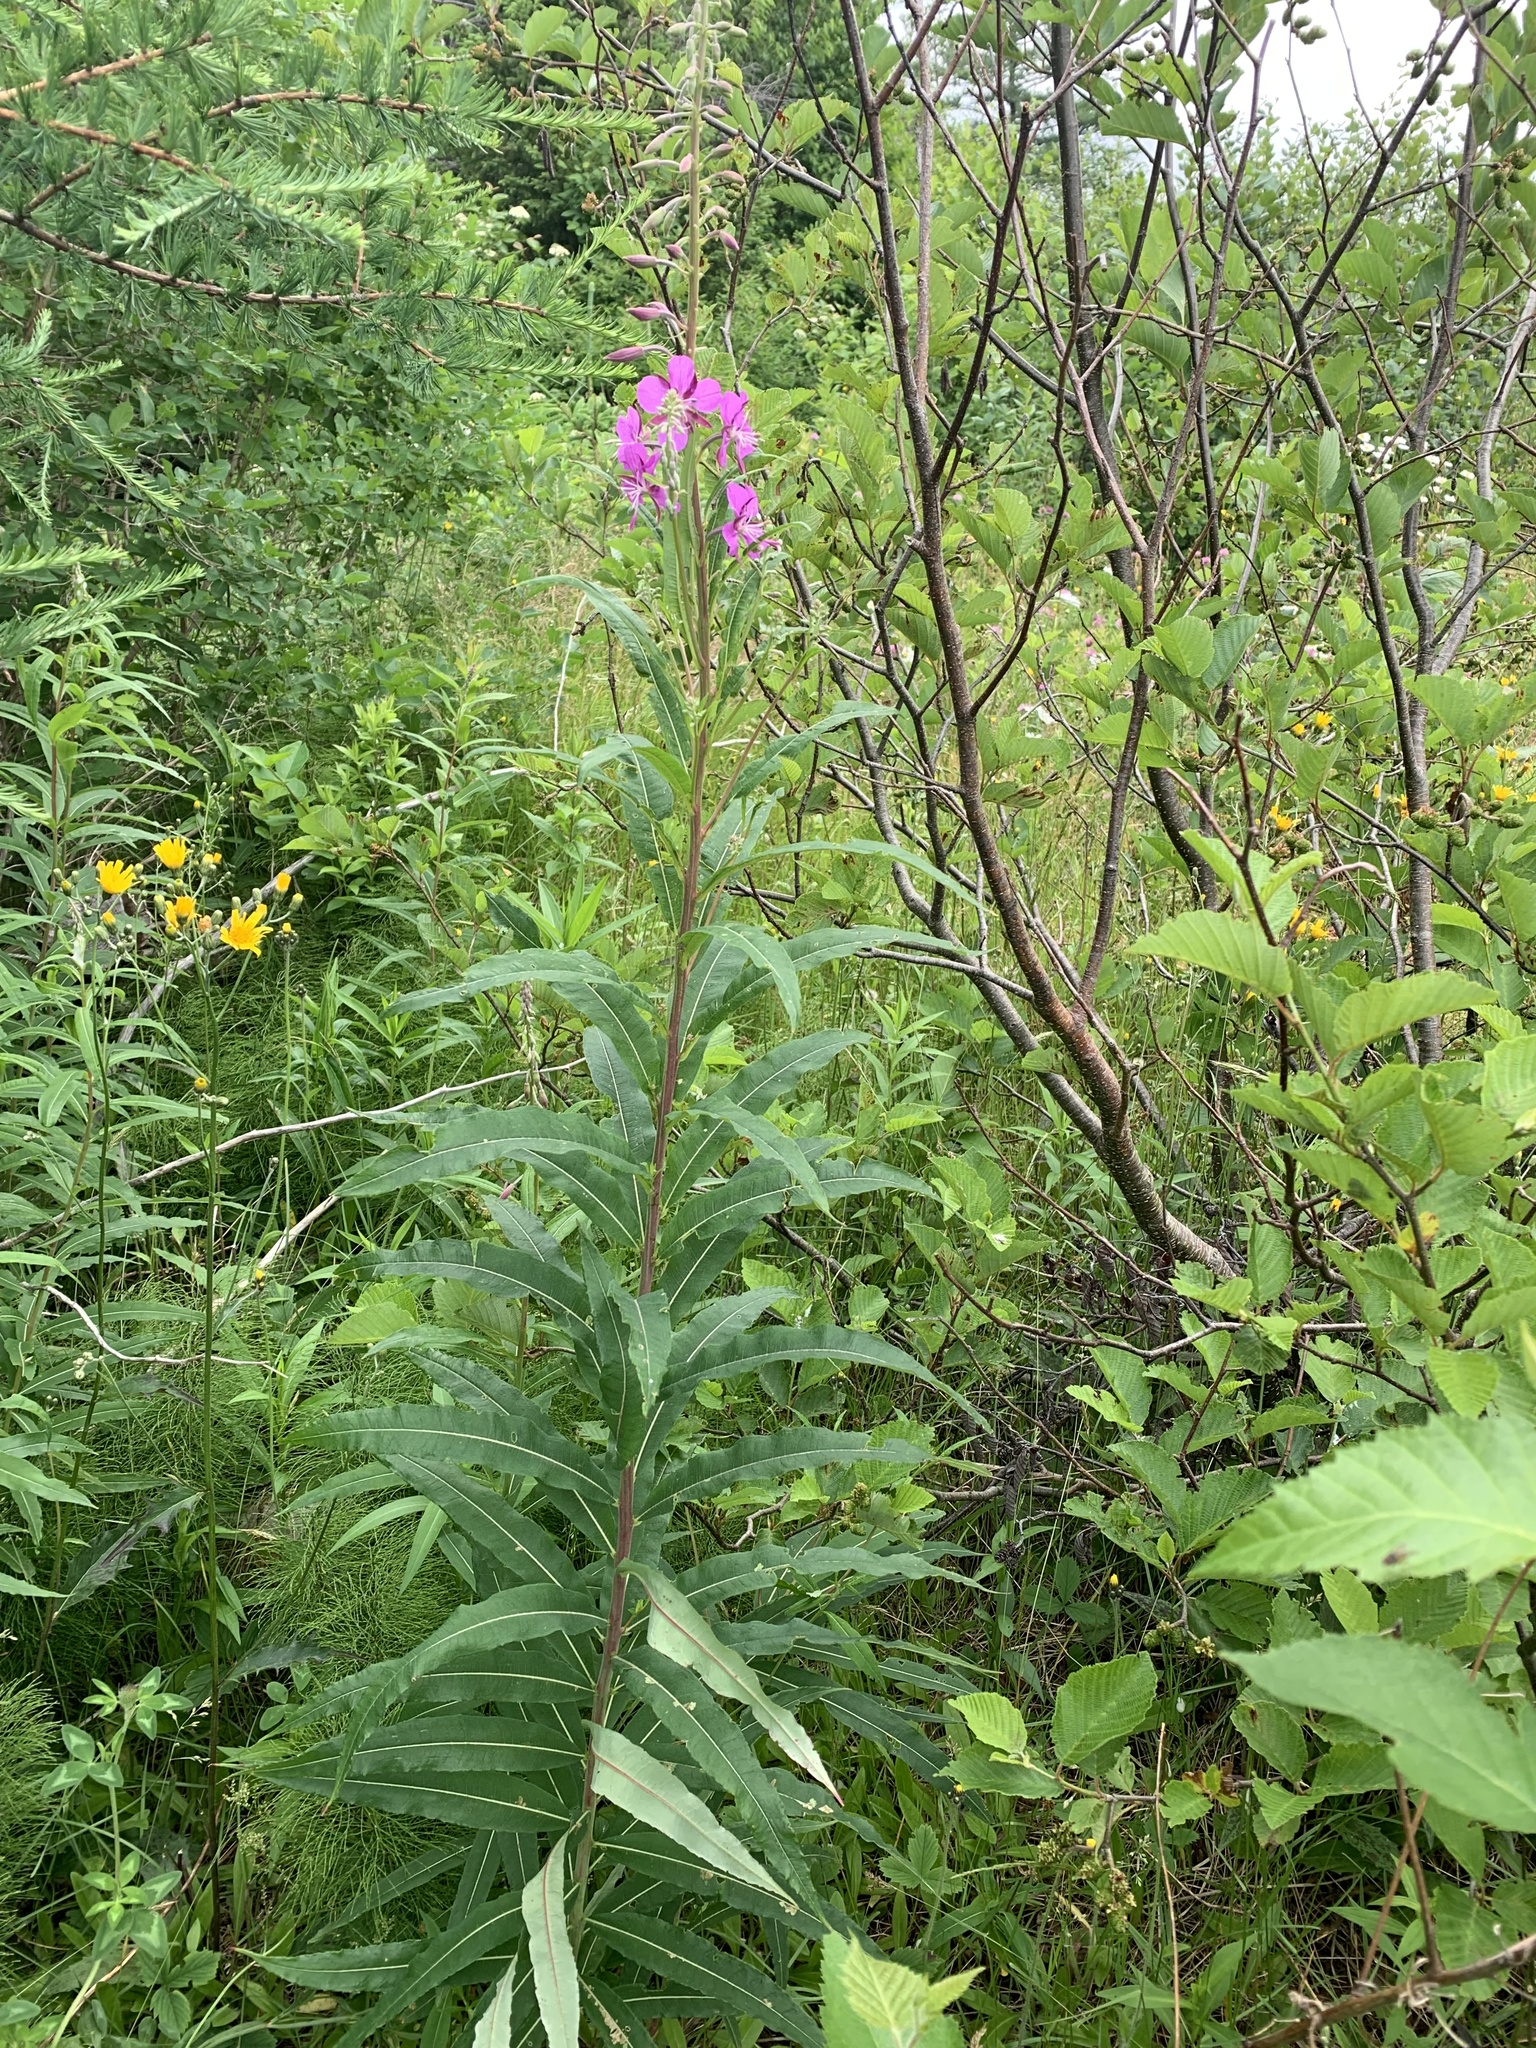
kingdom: Plantae
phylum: Tracheophyta
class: Magnoliopsida
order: Myrtales
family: Onagraceae
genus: Chamaenerion
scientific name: Chamaenerion angustifolium
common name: Fireweed
